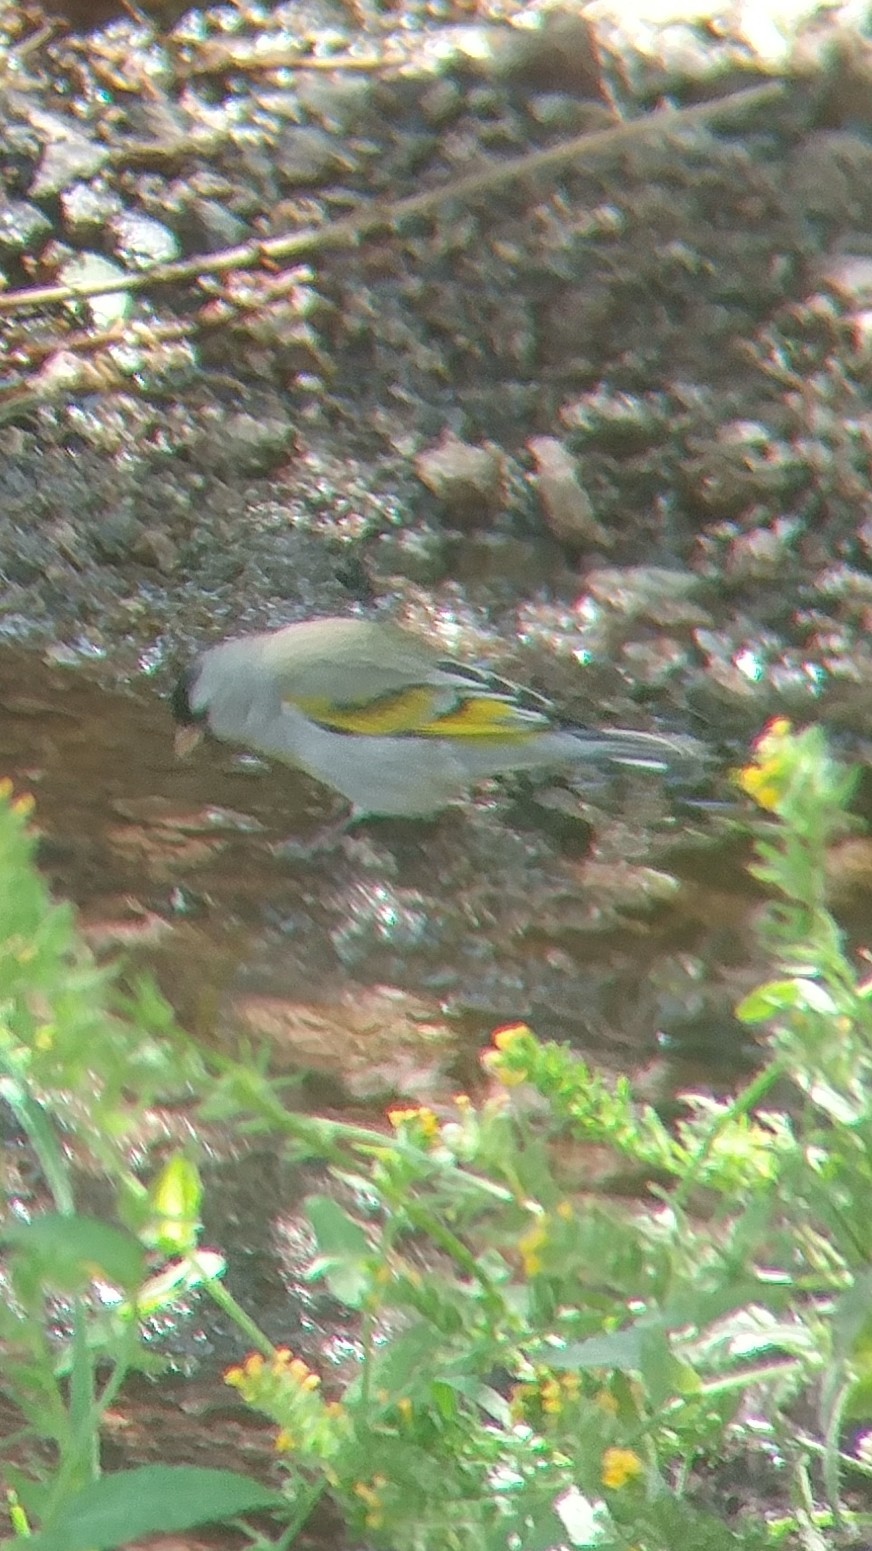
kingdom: Animalia
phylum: Chordata
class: Aves
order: Passeriformes
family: Fringillidae
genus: Spinus
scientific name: Spinus lawrencei
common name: Lawrence's goldfinch
